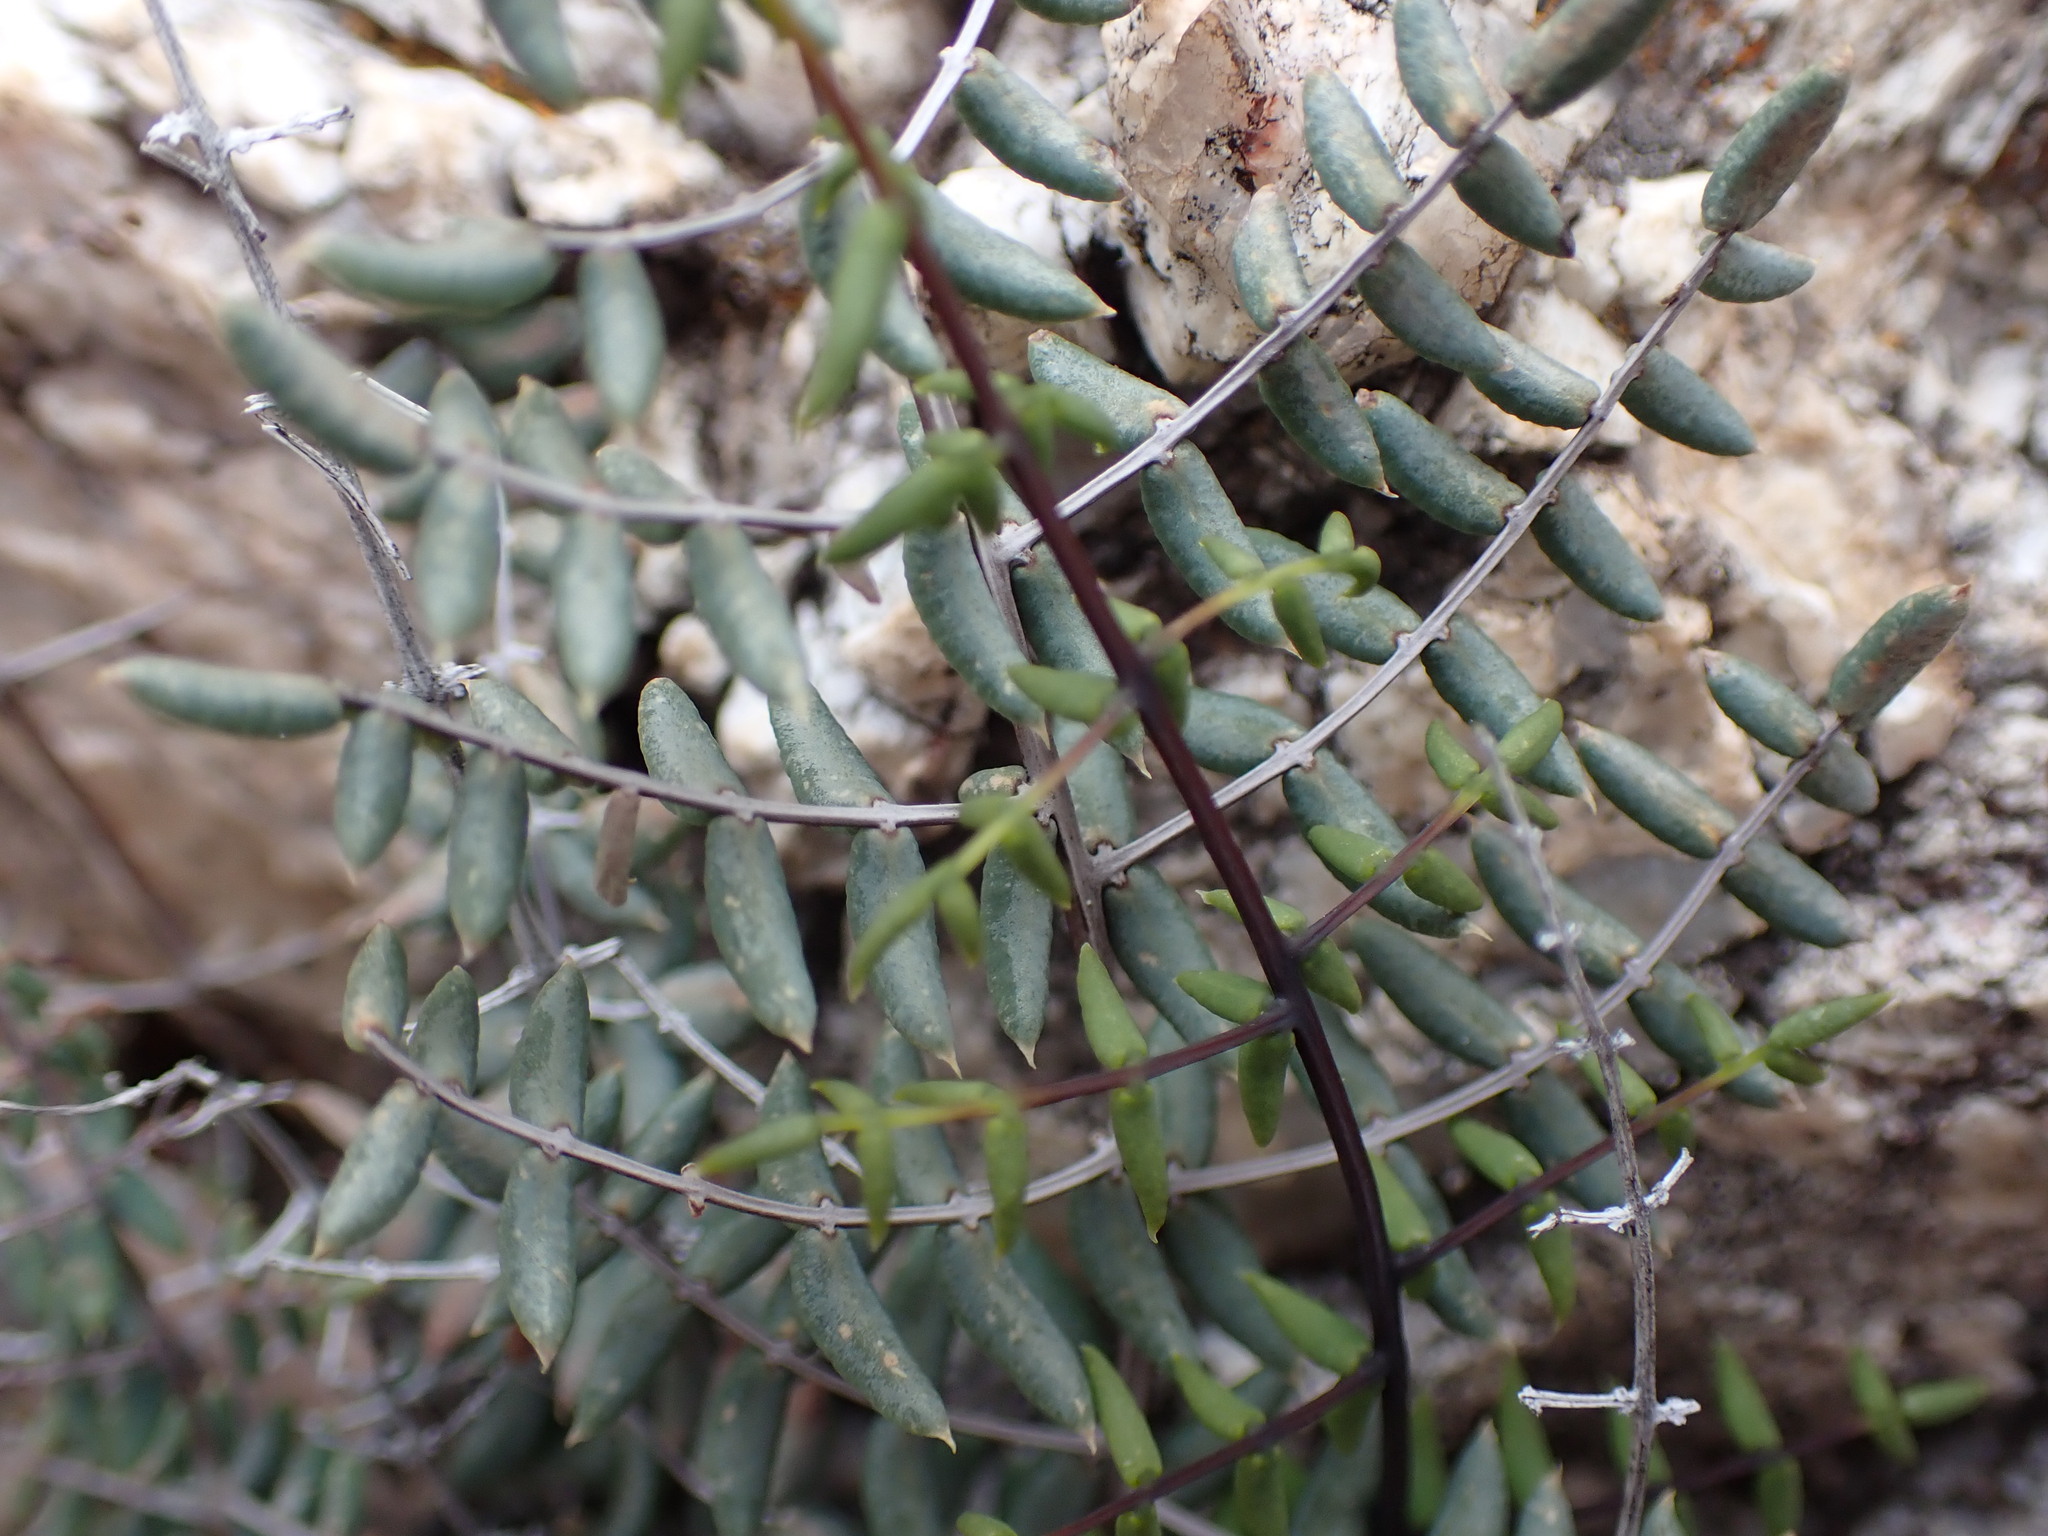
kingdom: Plantae
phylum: Tracheophyta
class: Polypodiopsida
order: Polypodiales
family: Pteridaceae
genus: Pellaea
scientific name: Pellaea truncata
